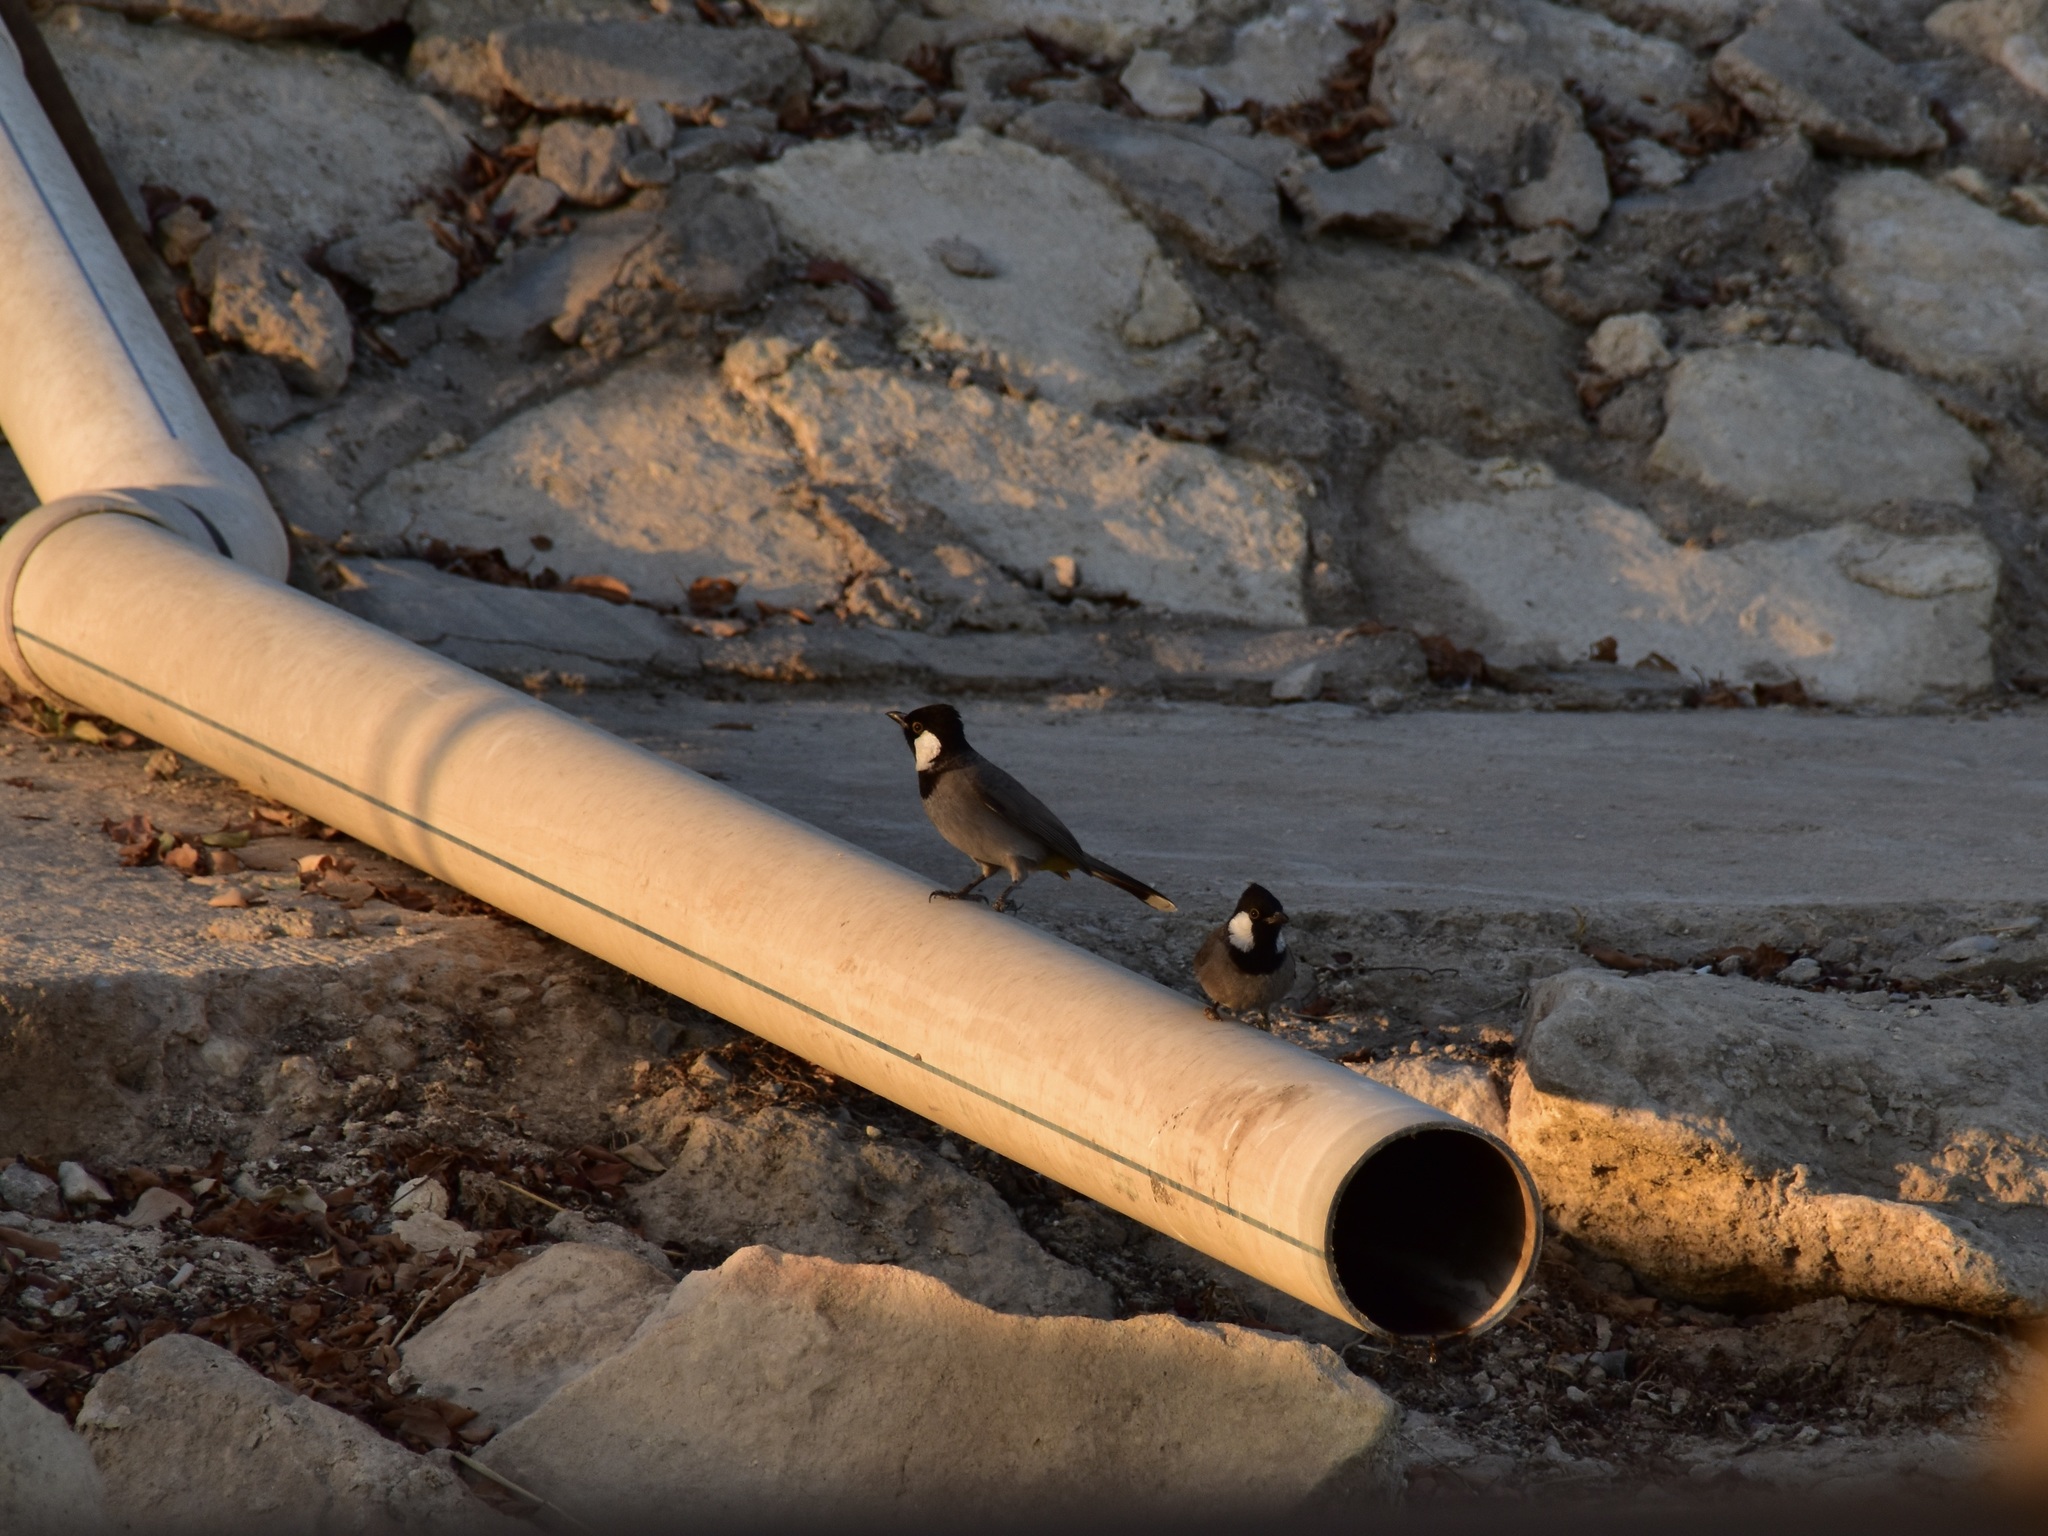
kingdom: Animalia
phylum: Chordata
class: Aves
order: Passeriformes
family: Pycnonotidae
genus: Pycnonotus
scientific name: Pycnonotus leucotis
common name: White-eared bulbul
